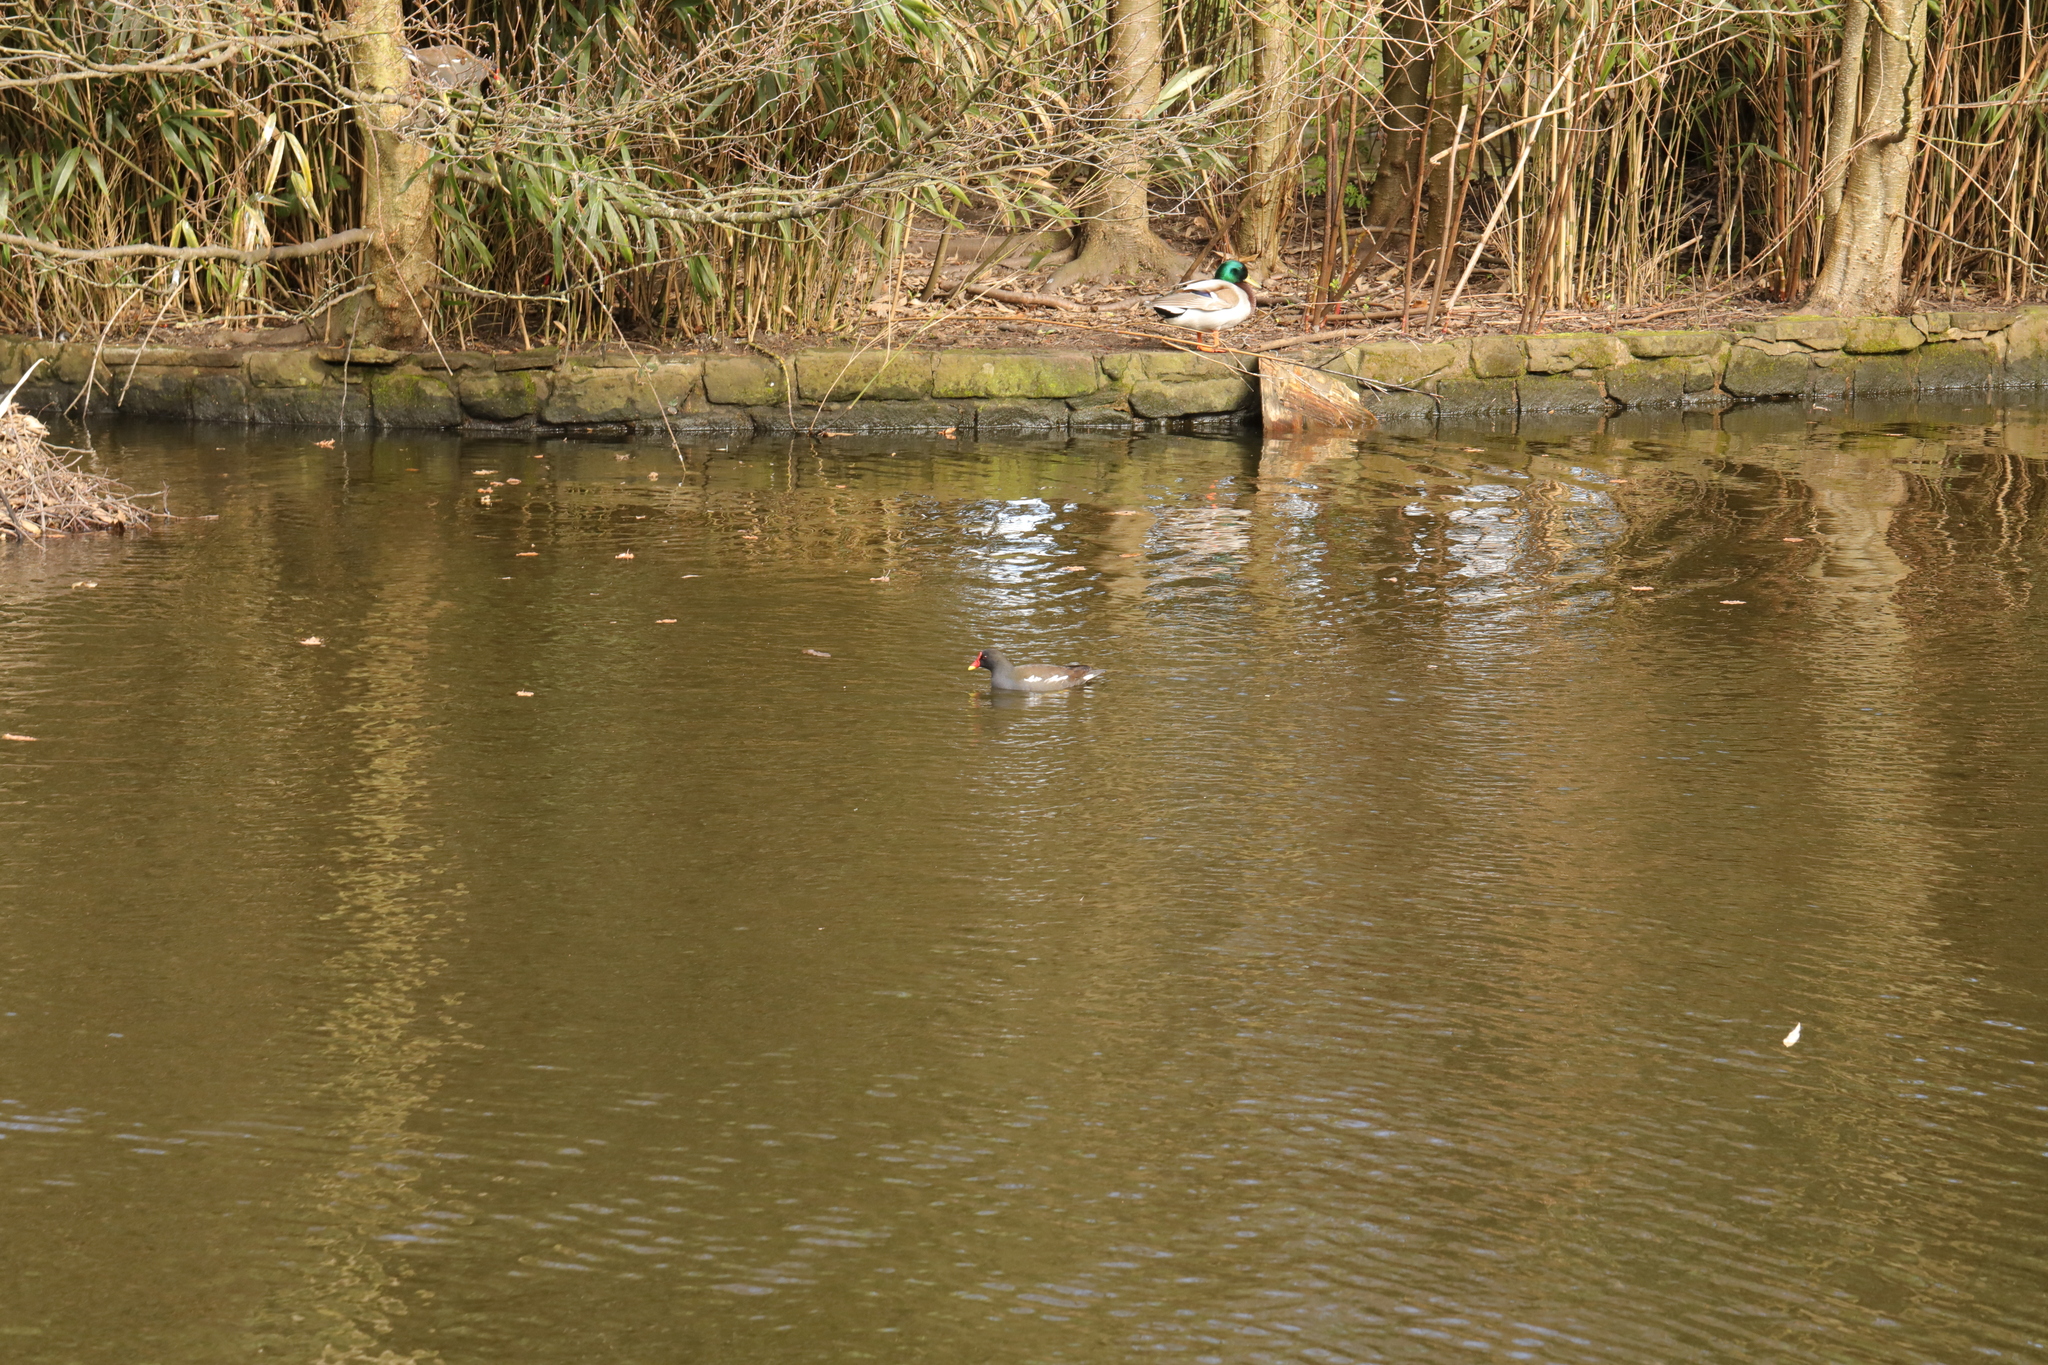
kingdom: Animalia
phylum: Chordata
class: Aves
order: Gruiformes
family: Rallidae
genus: Gallinula
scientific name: Gallinula chloropus
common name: Common moorhen
